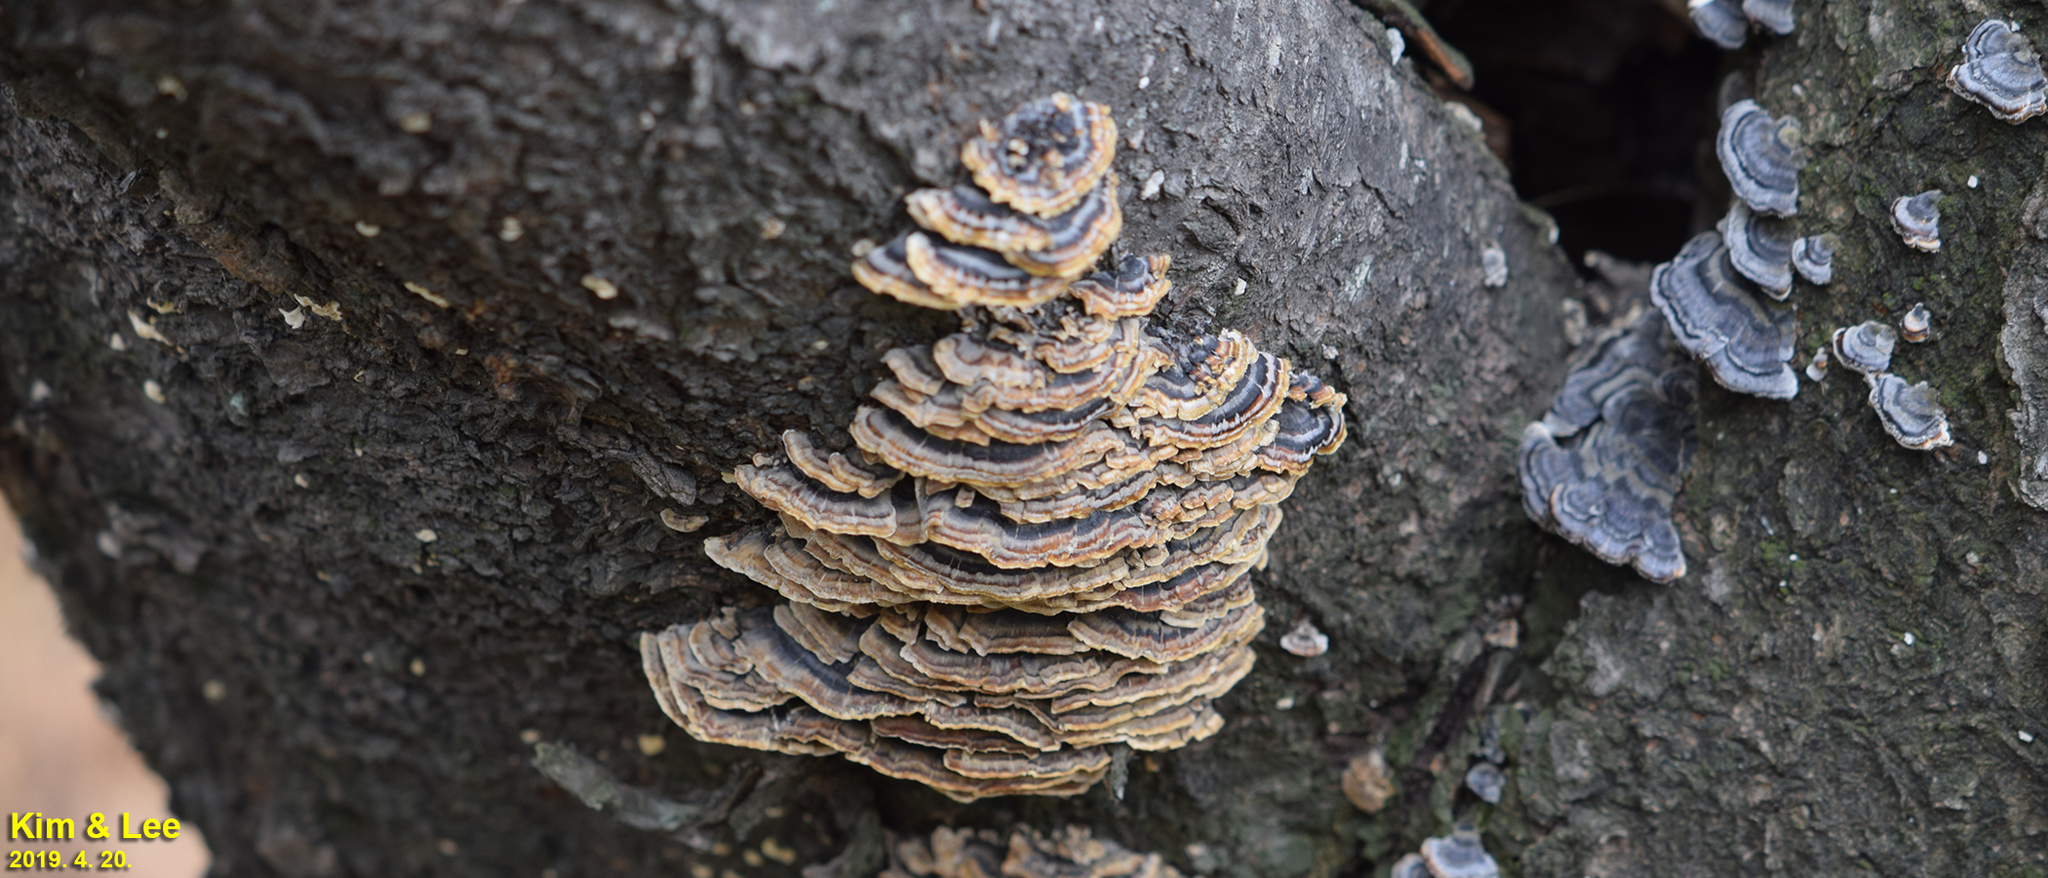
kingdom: Fungi
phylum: Basidiomycota
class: Agaricomycetes
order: Polyporales
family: Polyporaceae
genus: Trametes
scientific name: Trametes versicolor
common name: Turkeytail
